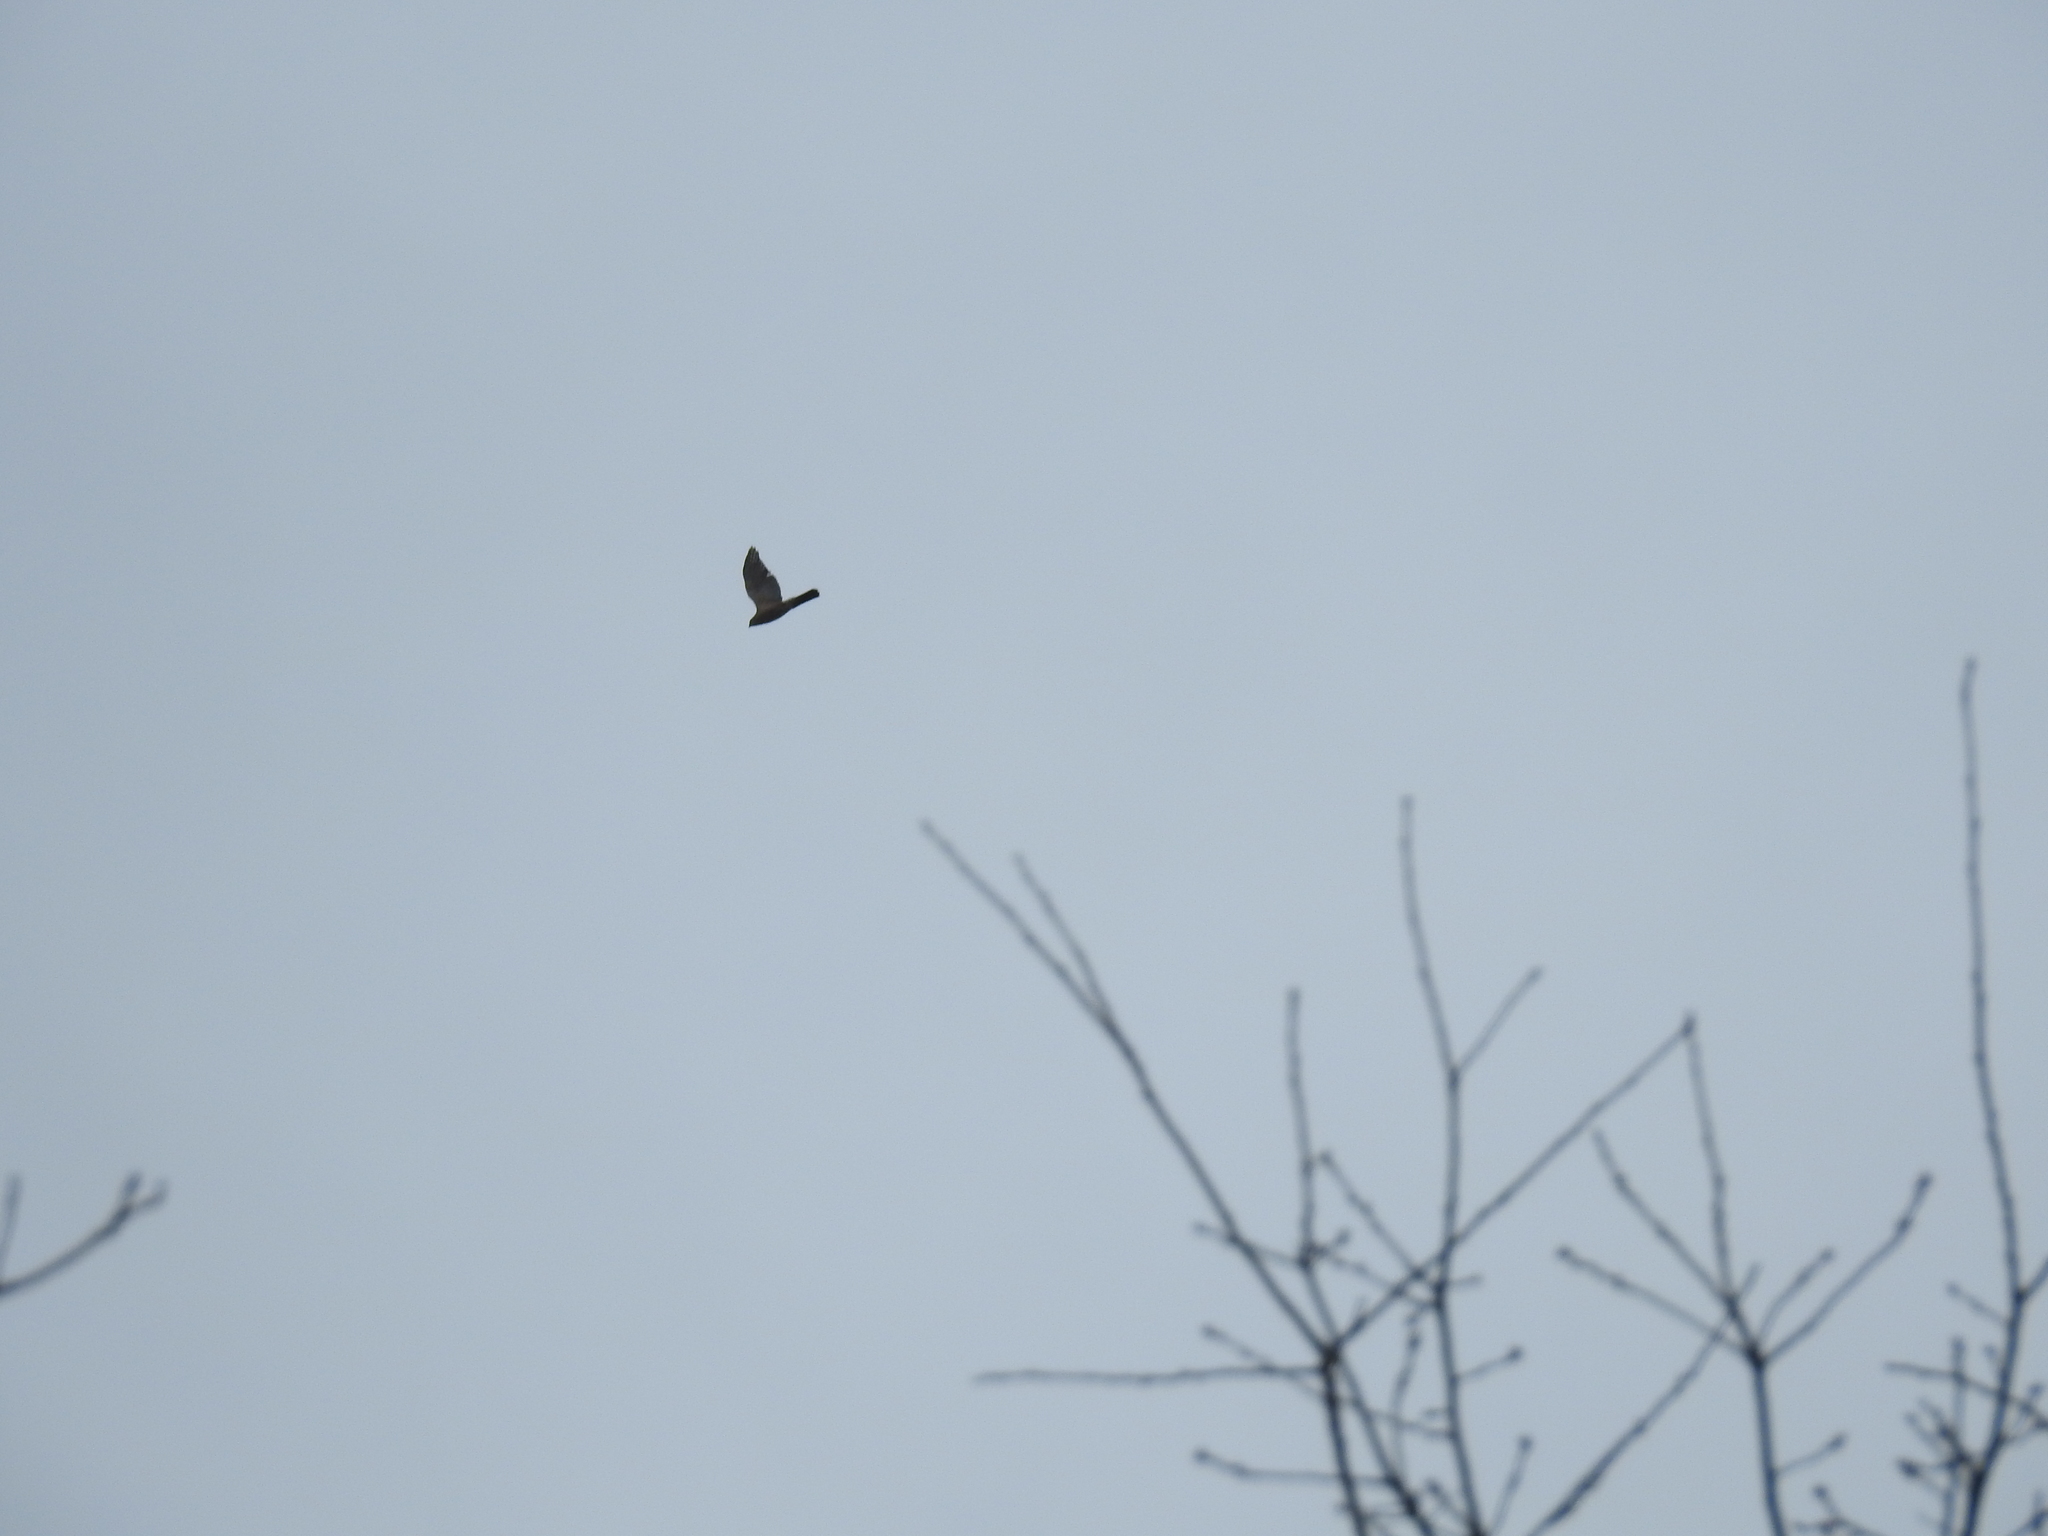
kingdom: Animalia
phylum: Chordata
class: Aves
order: Accipitriformes
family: Accipitridae
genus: Accipiter
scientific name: Accipiter cooperii
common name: Cooper's hawk
